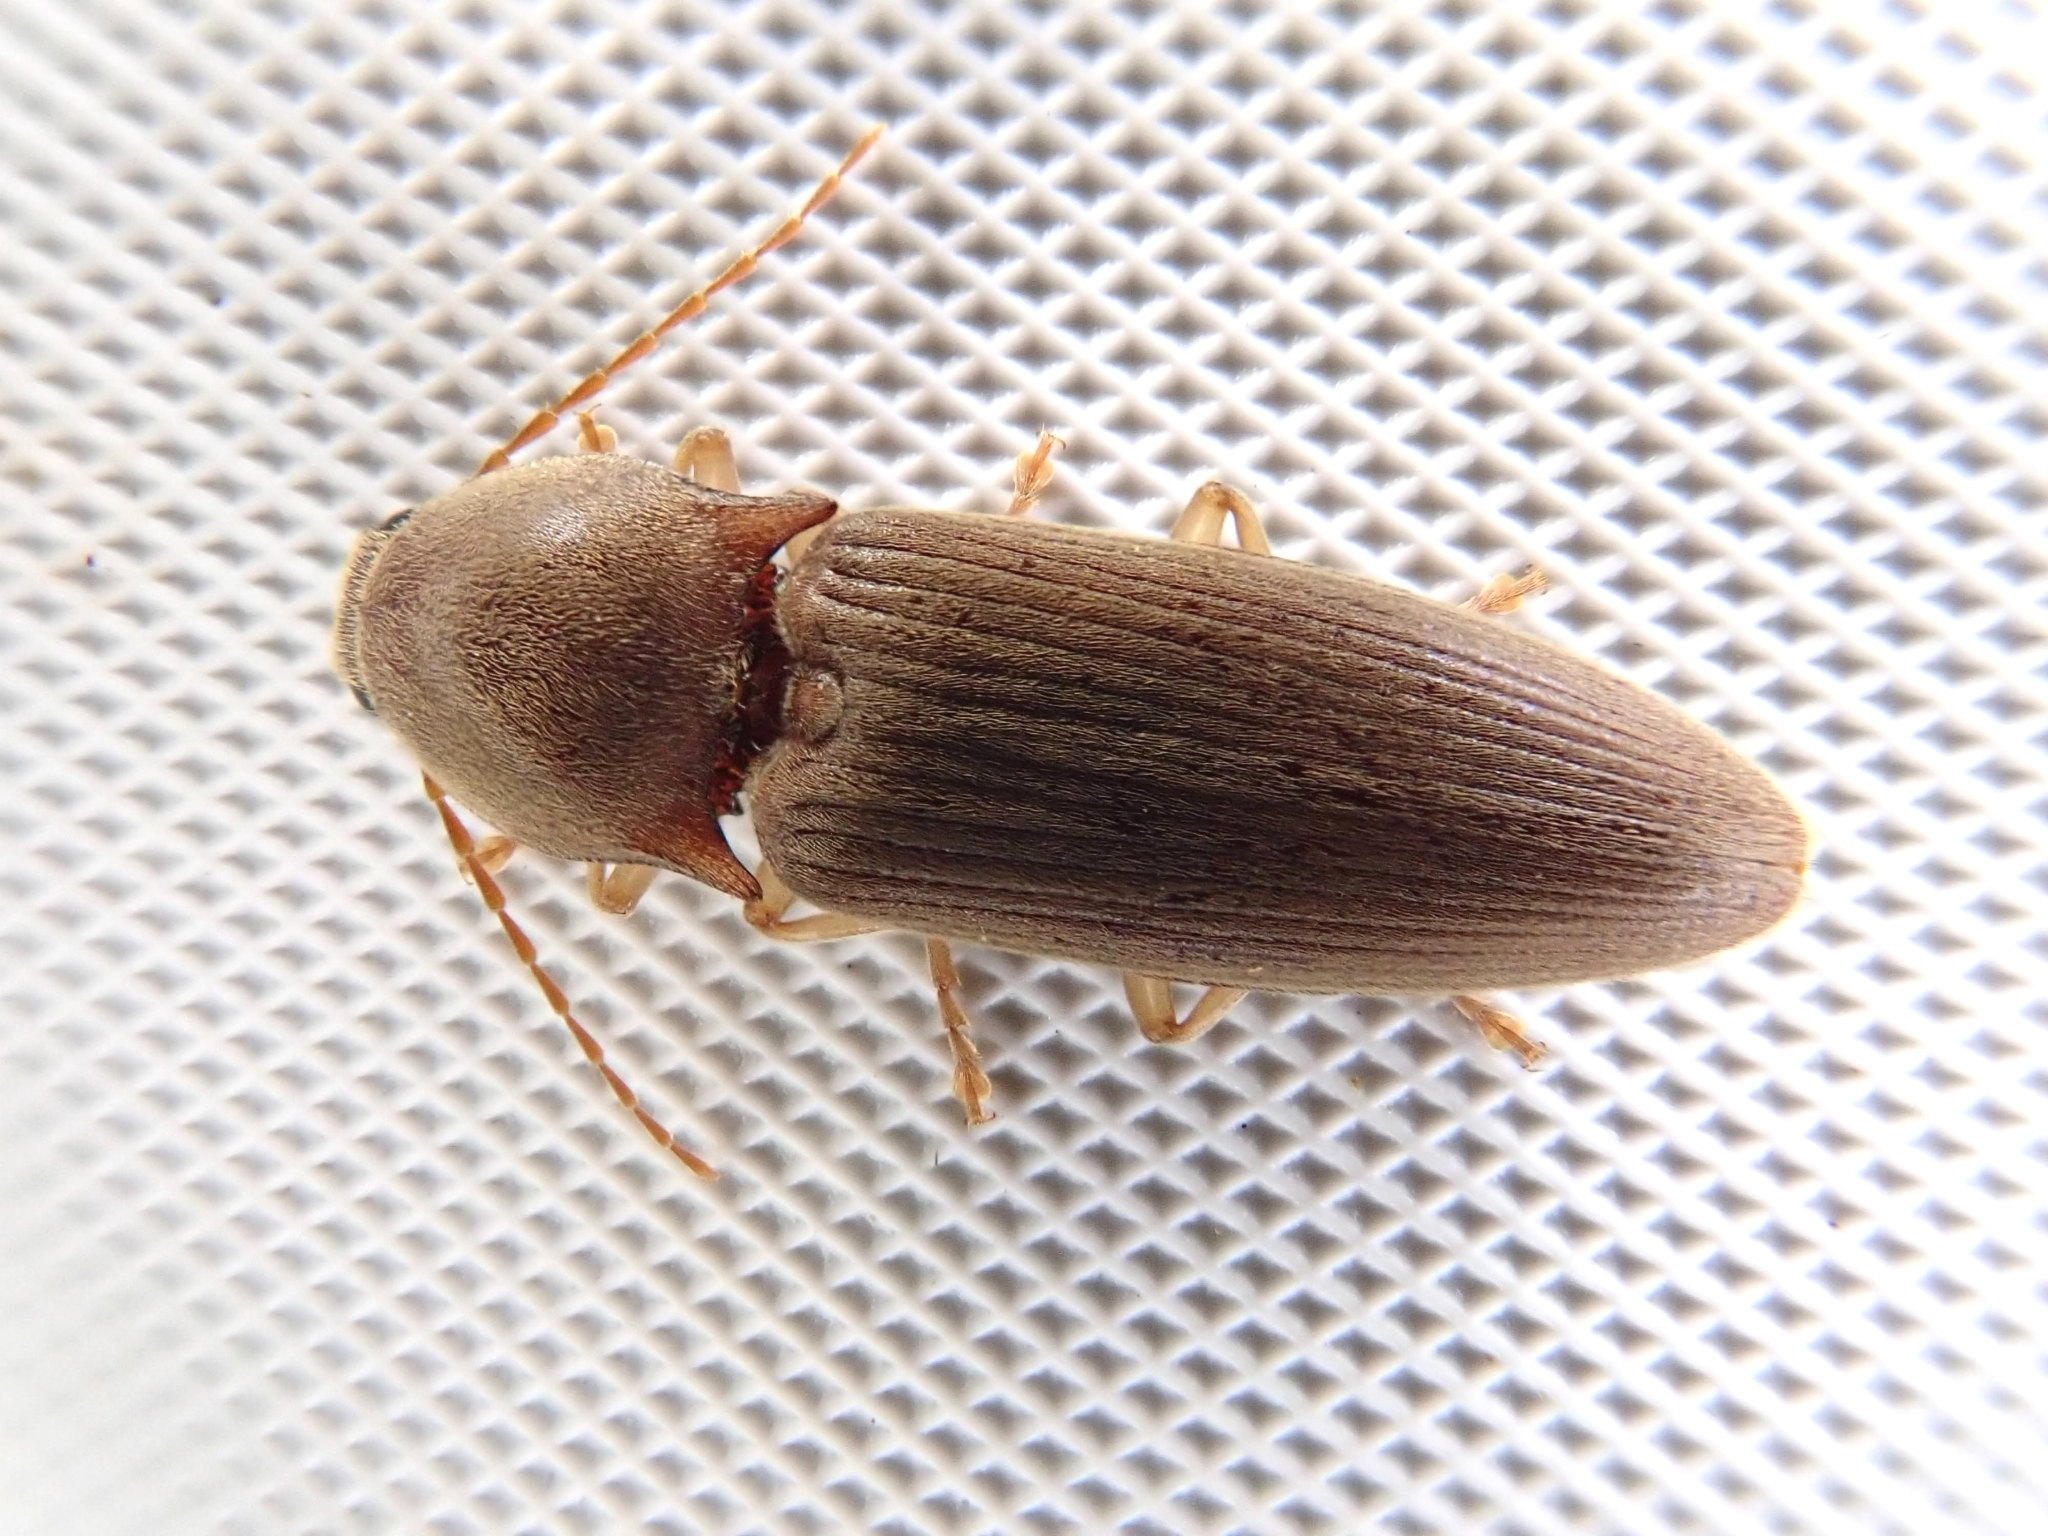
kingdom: Animalia
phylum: Arthropoda
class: Insecta
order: Coleoptera
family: Elateridae
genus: Monocrepidius
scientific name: Monocrepidius lividus
